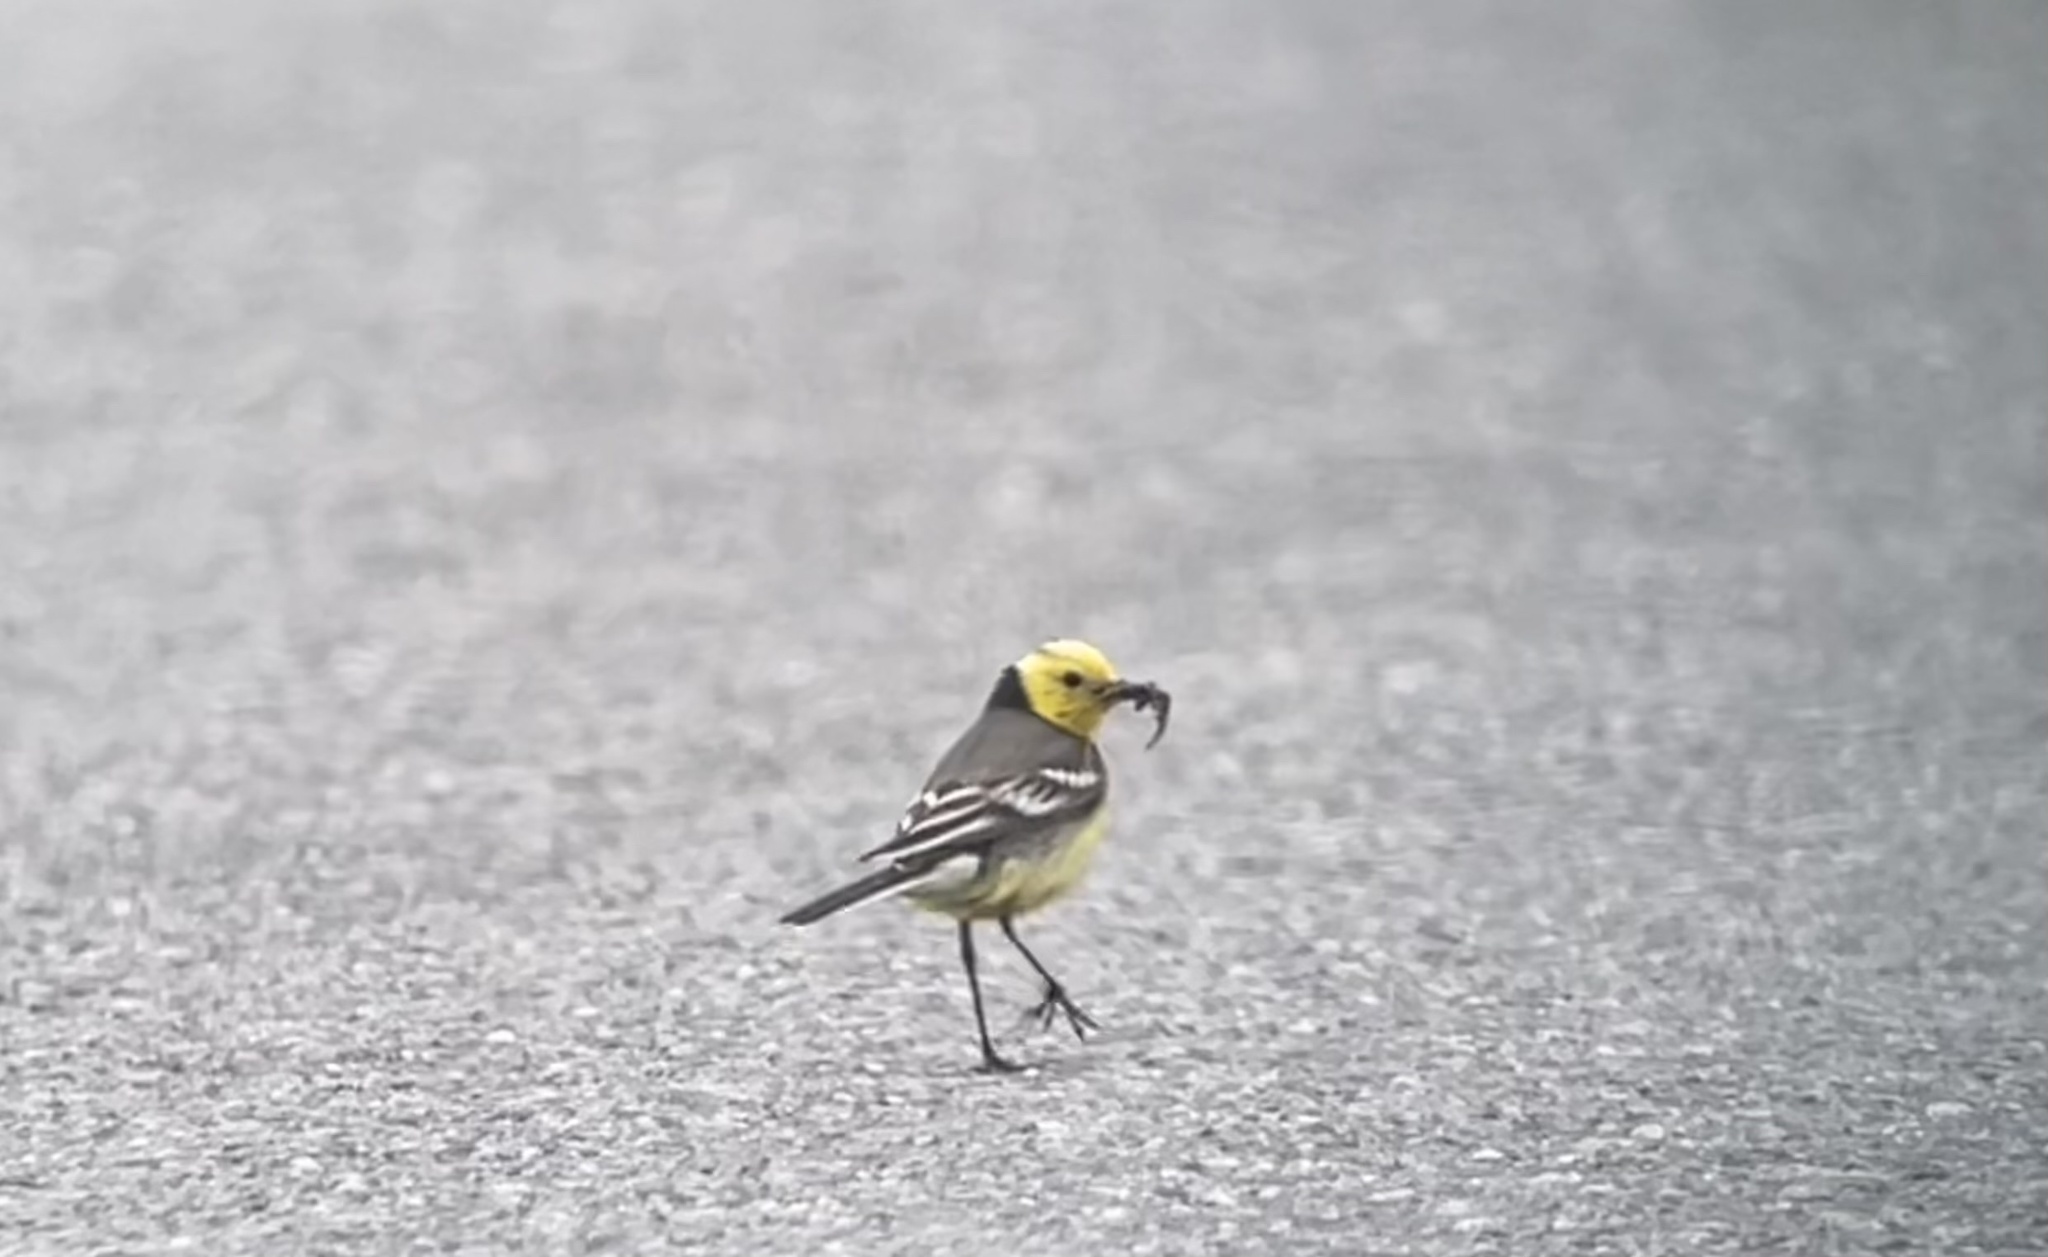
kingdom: Animalia
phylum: Chordata
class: Aves
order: Passeriformes
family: Motacillidae
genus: Motacilla
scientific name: Motacilla citreola
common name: Citrine wagtail
